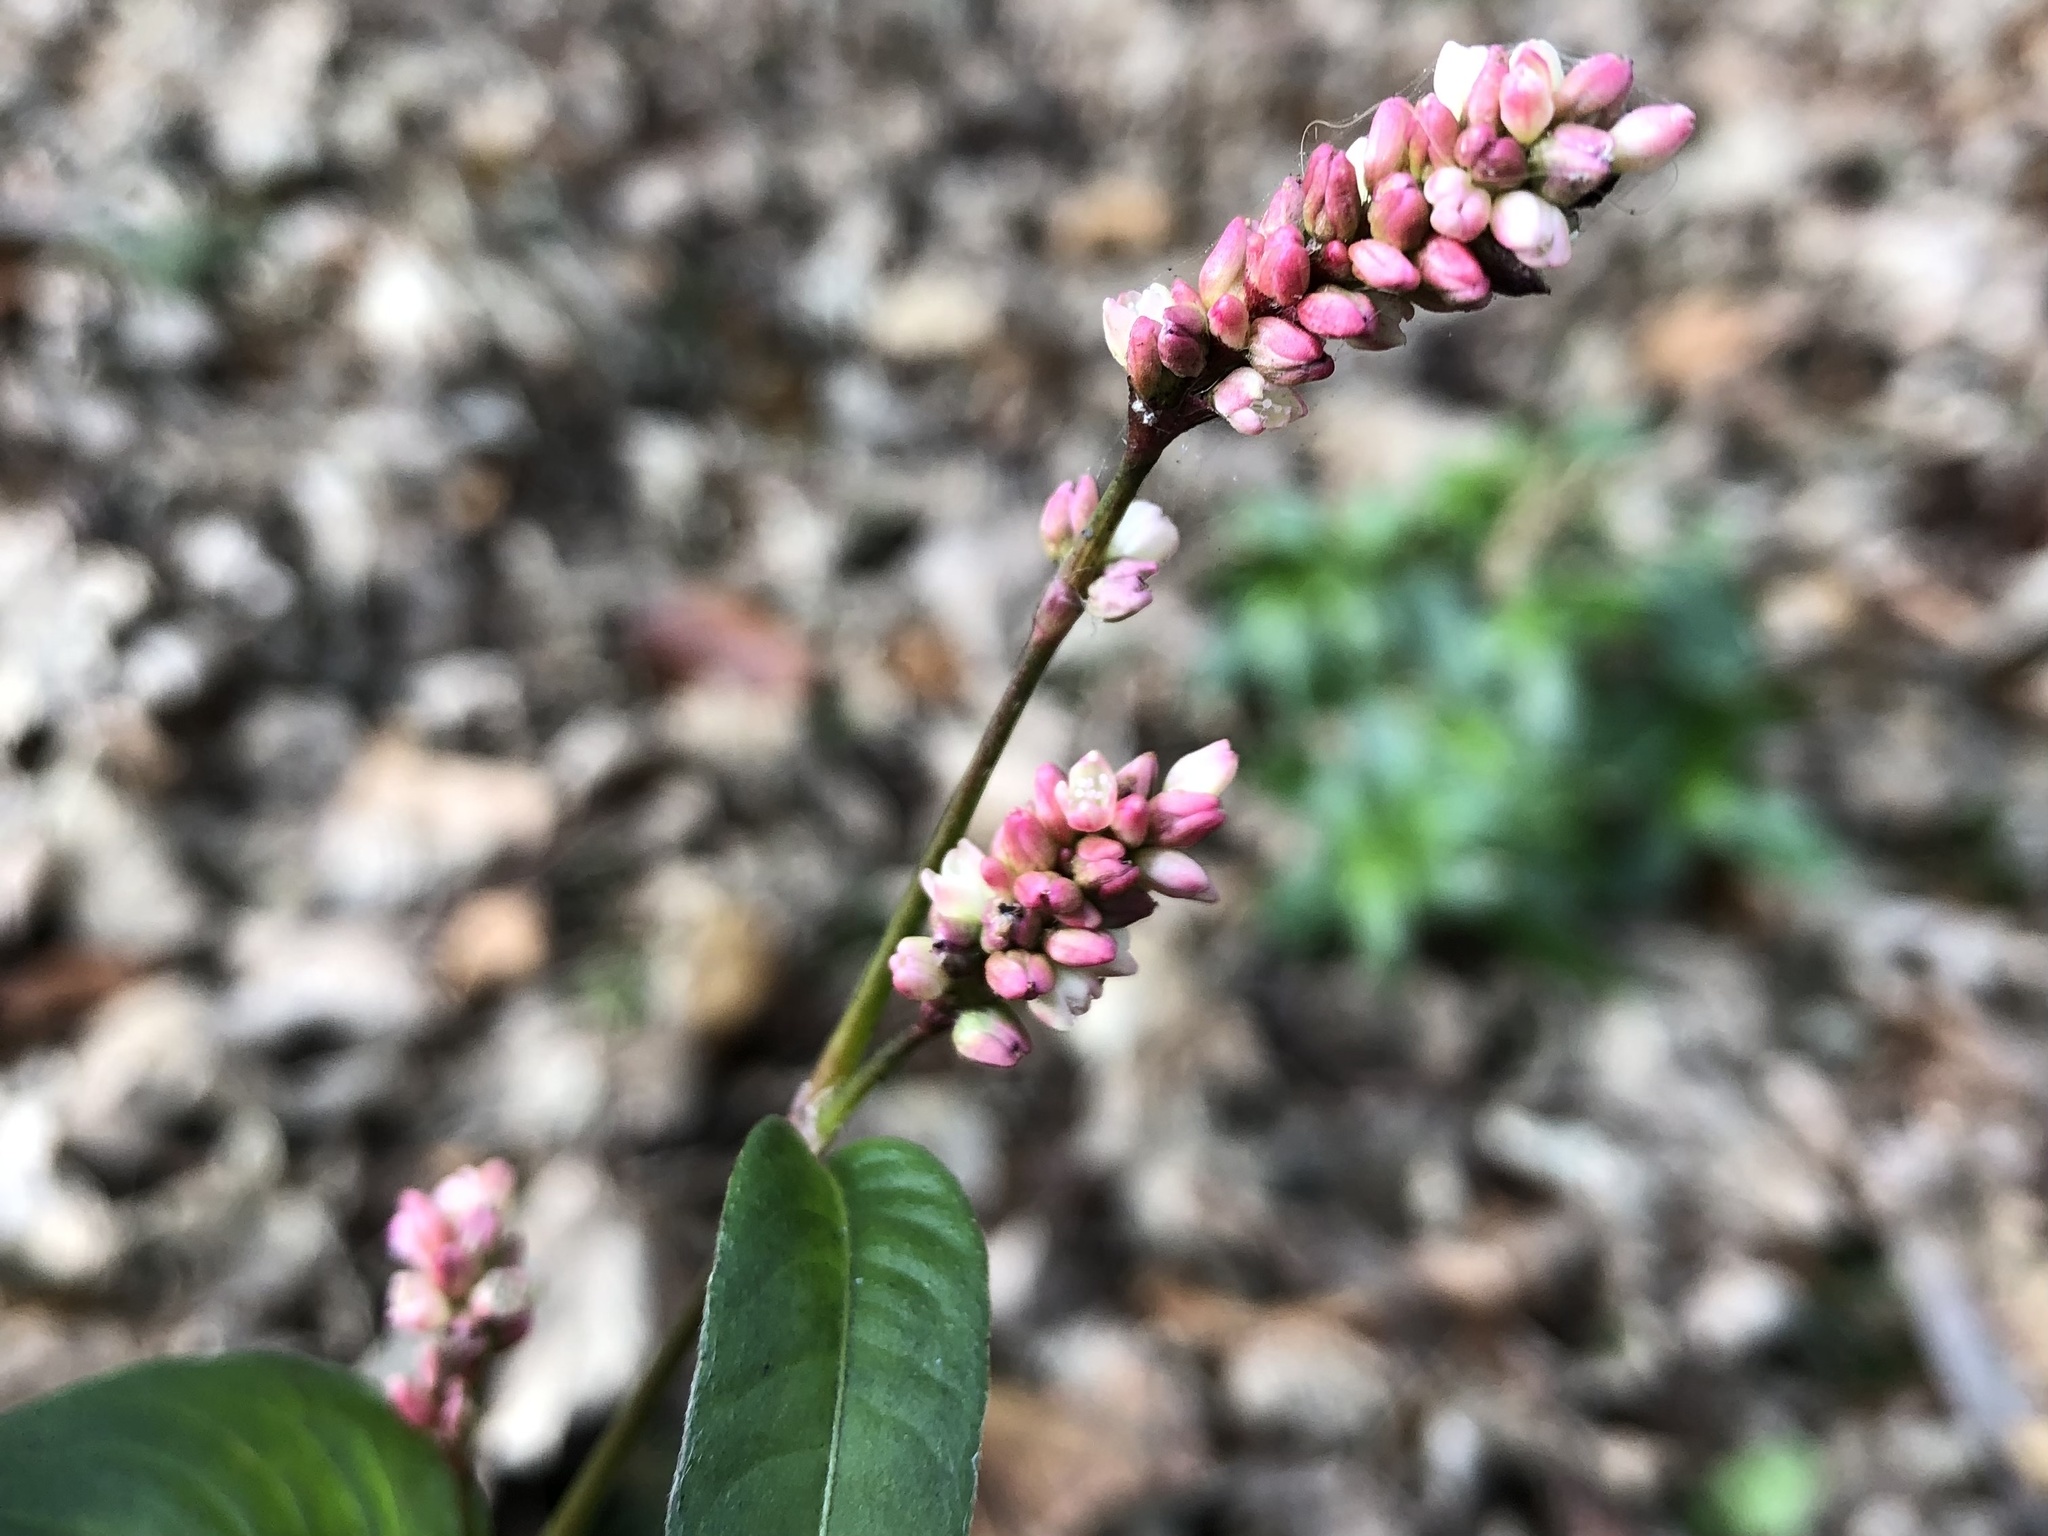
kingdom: Plantae
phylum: Tracheophyta
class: Magnoliopsida
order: Caryophyllales
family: Polygonaceae
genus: Persicaria
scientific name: Persicaria maculosa
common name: Redshank
